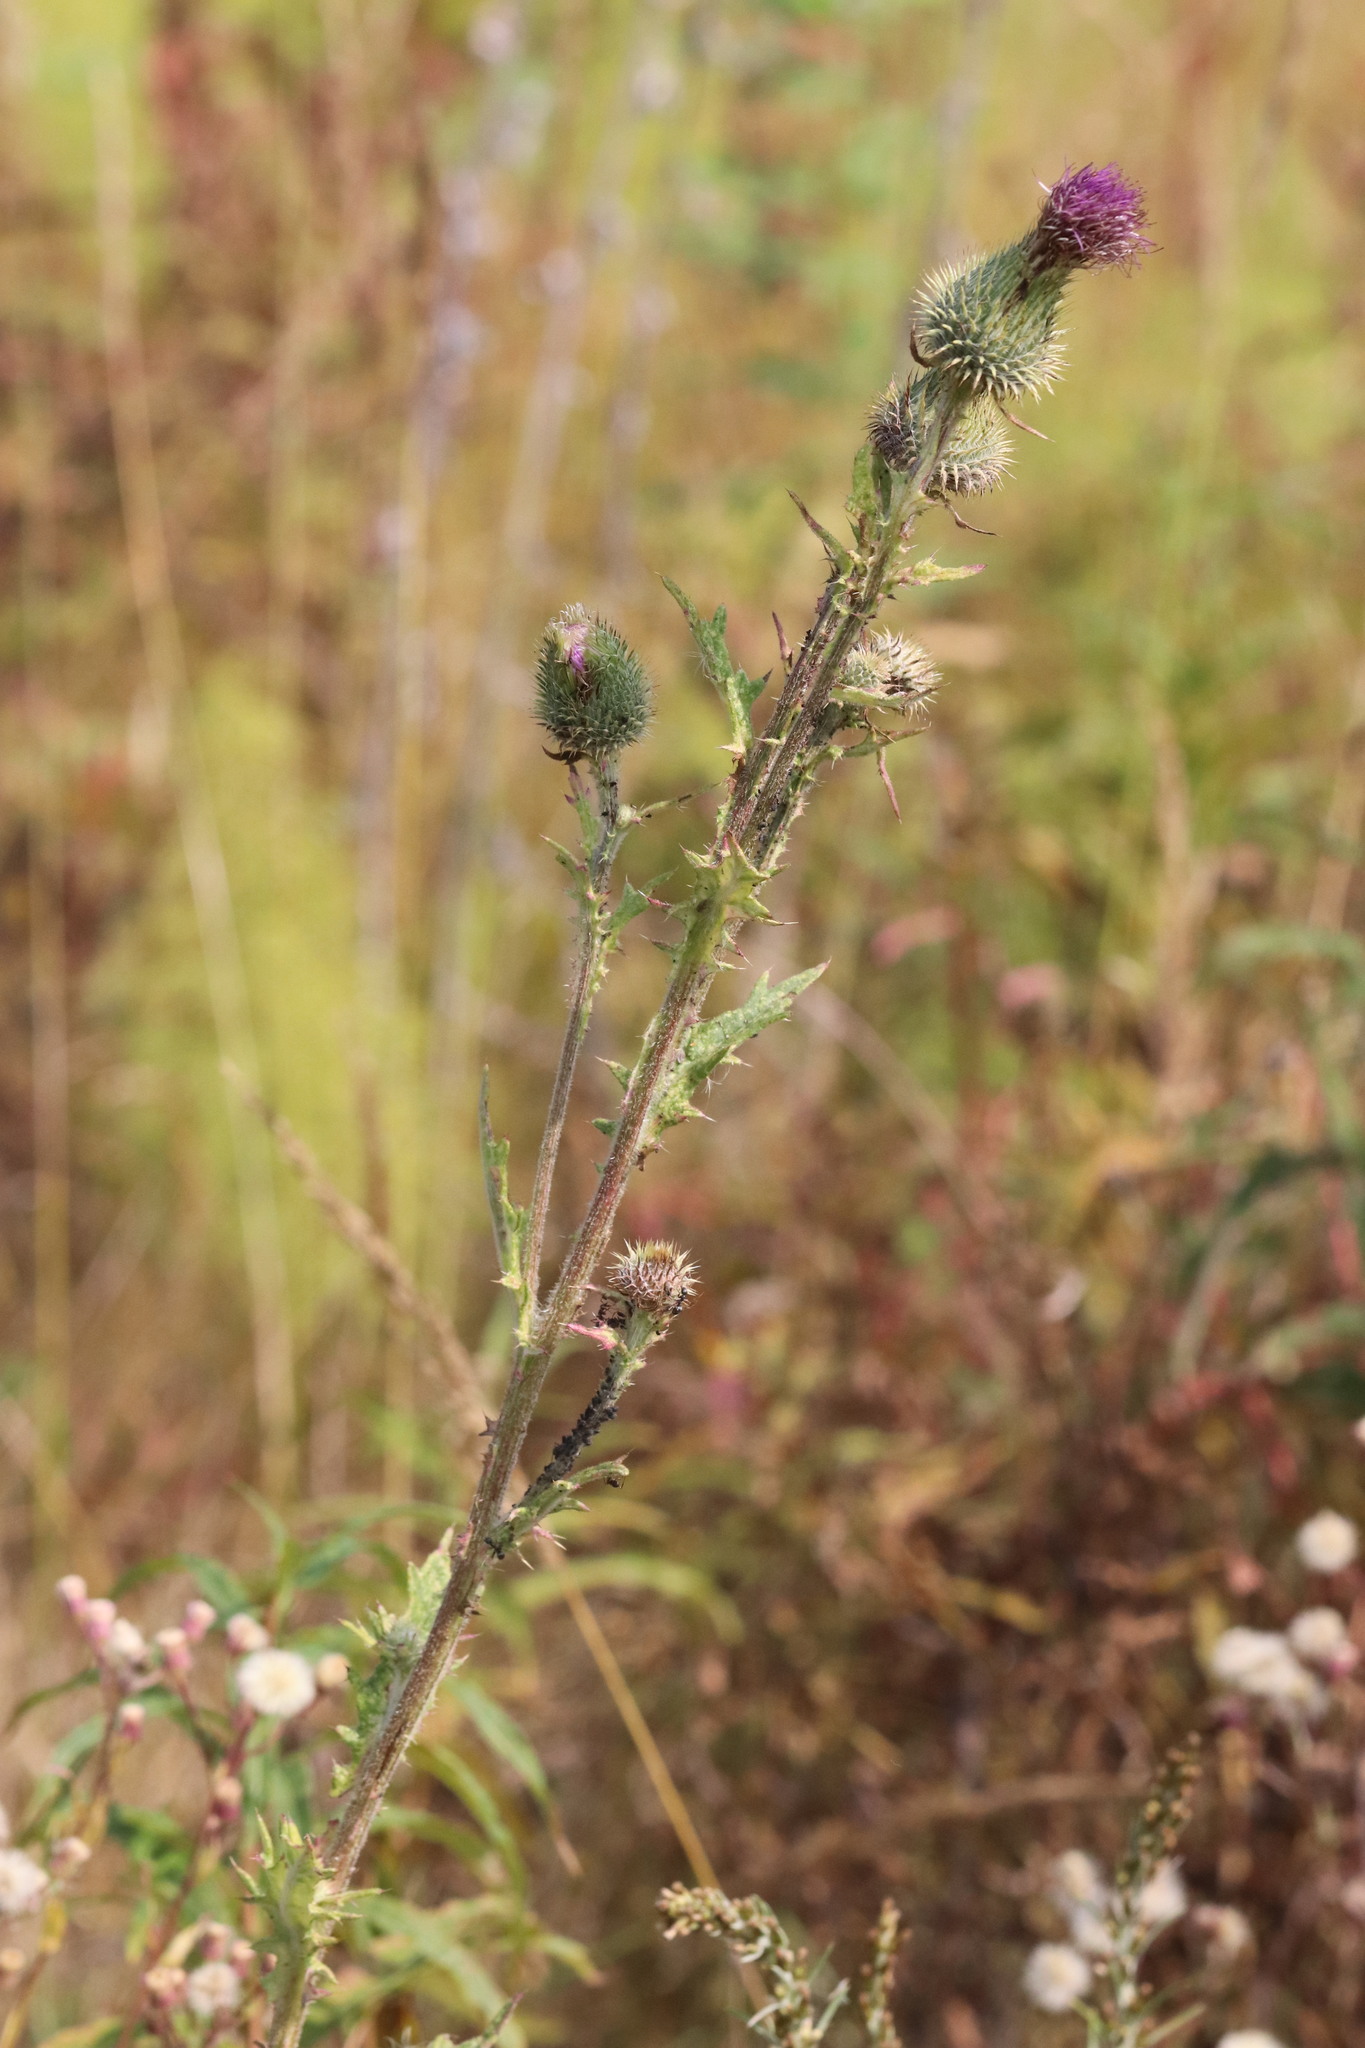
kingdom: Plantae
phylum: Tracheophyta
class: Magnoliopsida
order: Asterales
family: Asteraceae
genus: Cirsium
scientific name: Cirsium vulgare
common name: Bull thistle
